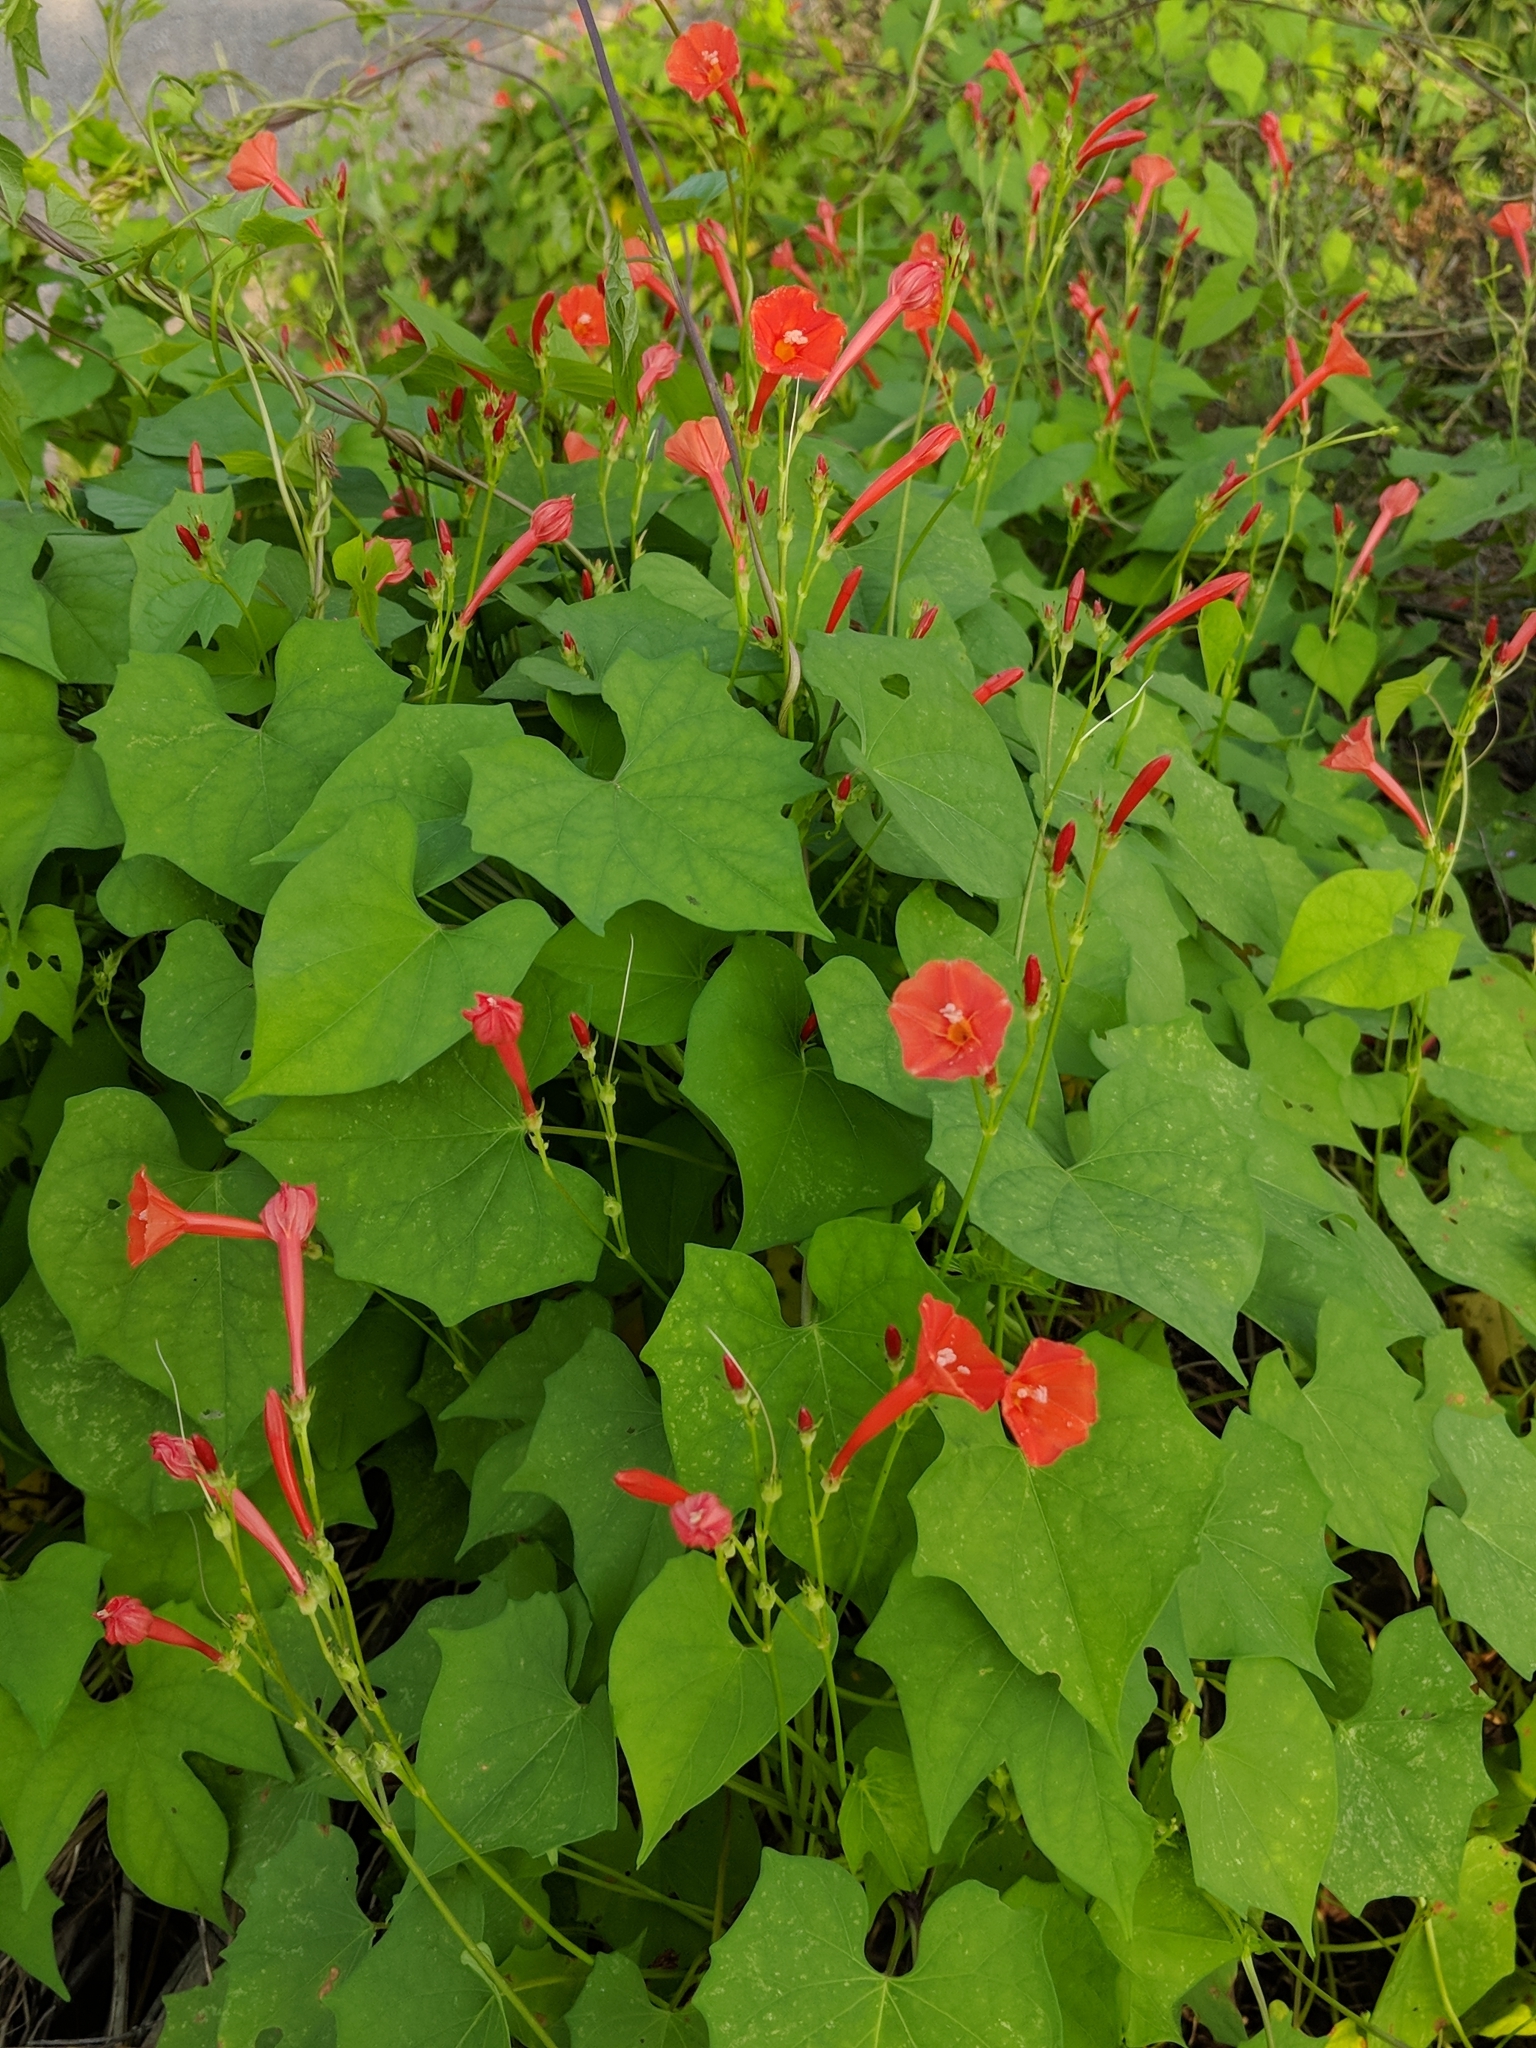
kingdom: Plantae
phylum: Tracheophyta
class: Magnoliopsida
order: Solanales
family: Convolvulaceae
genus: Ipomoea
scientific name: Ipomoea hederifolia
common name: Ivy-leaf morning-glory
